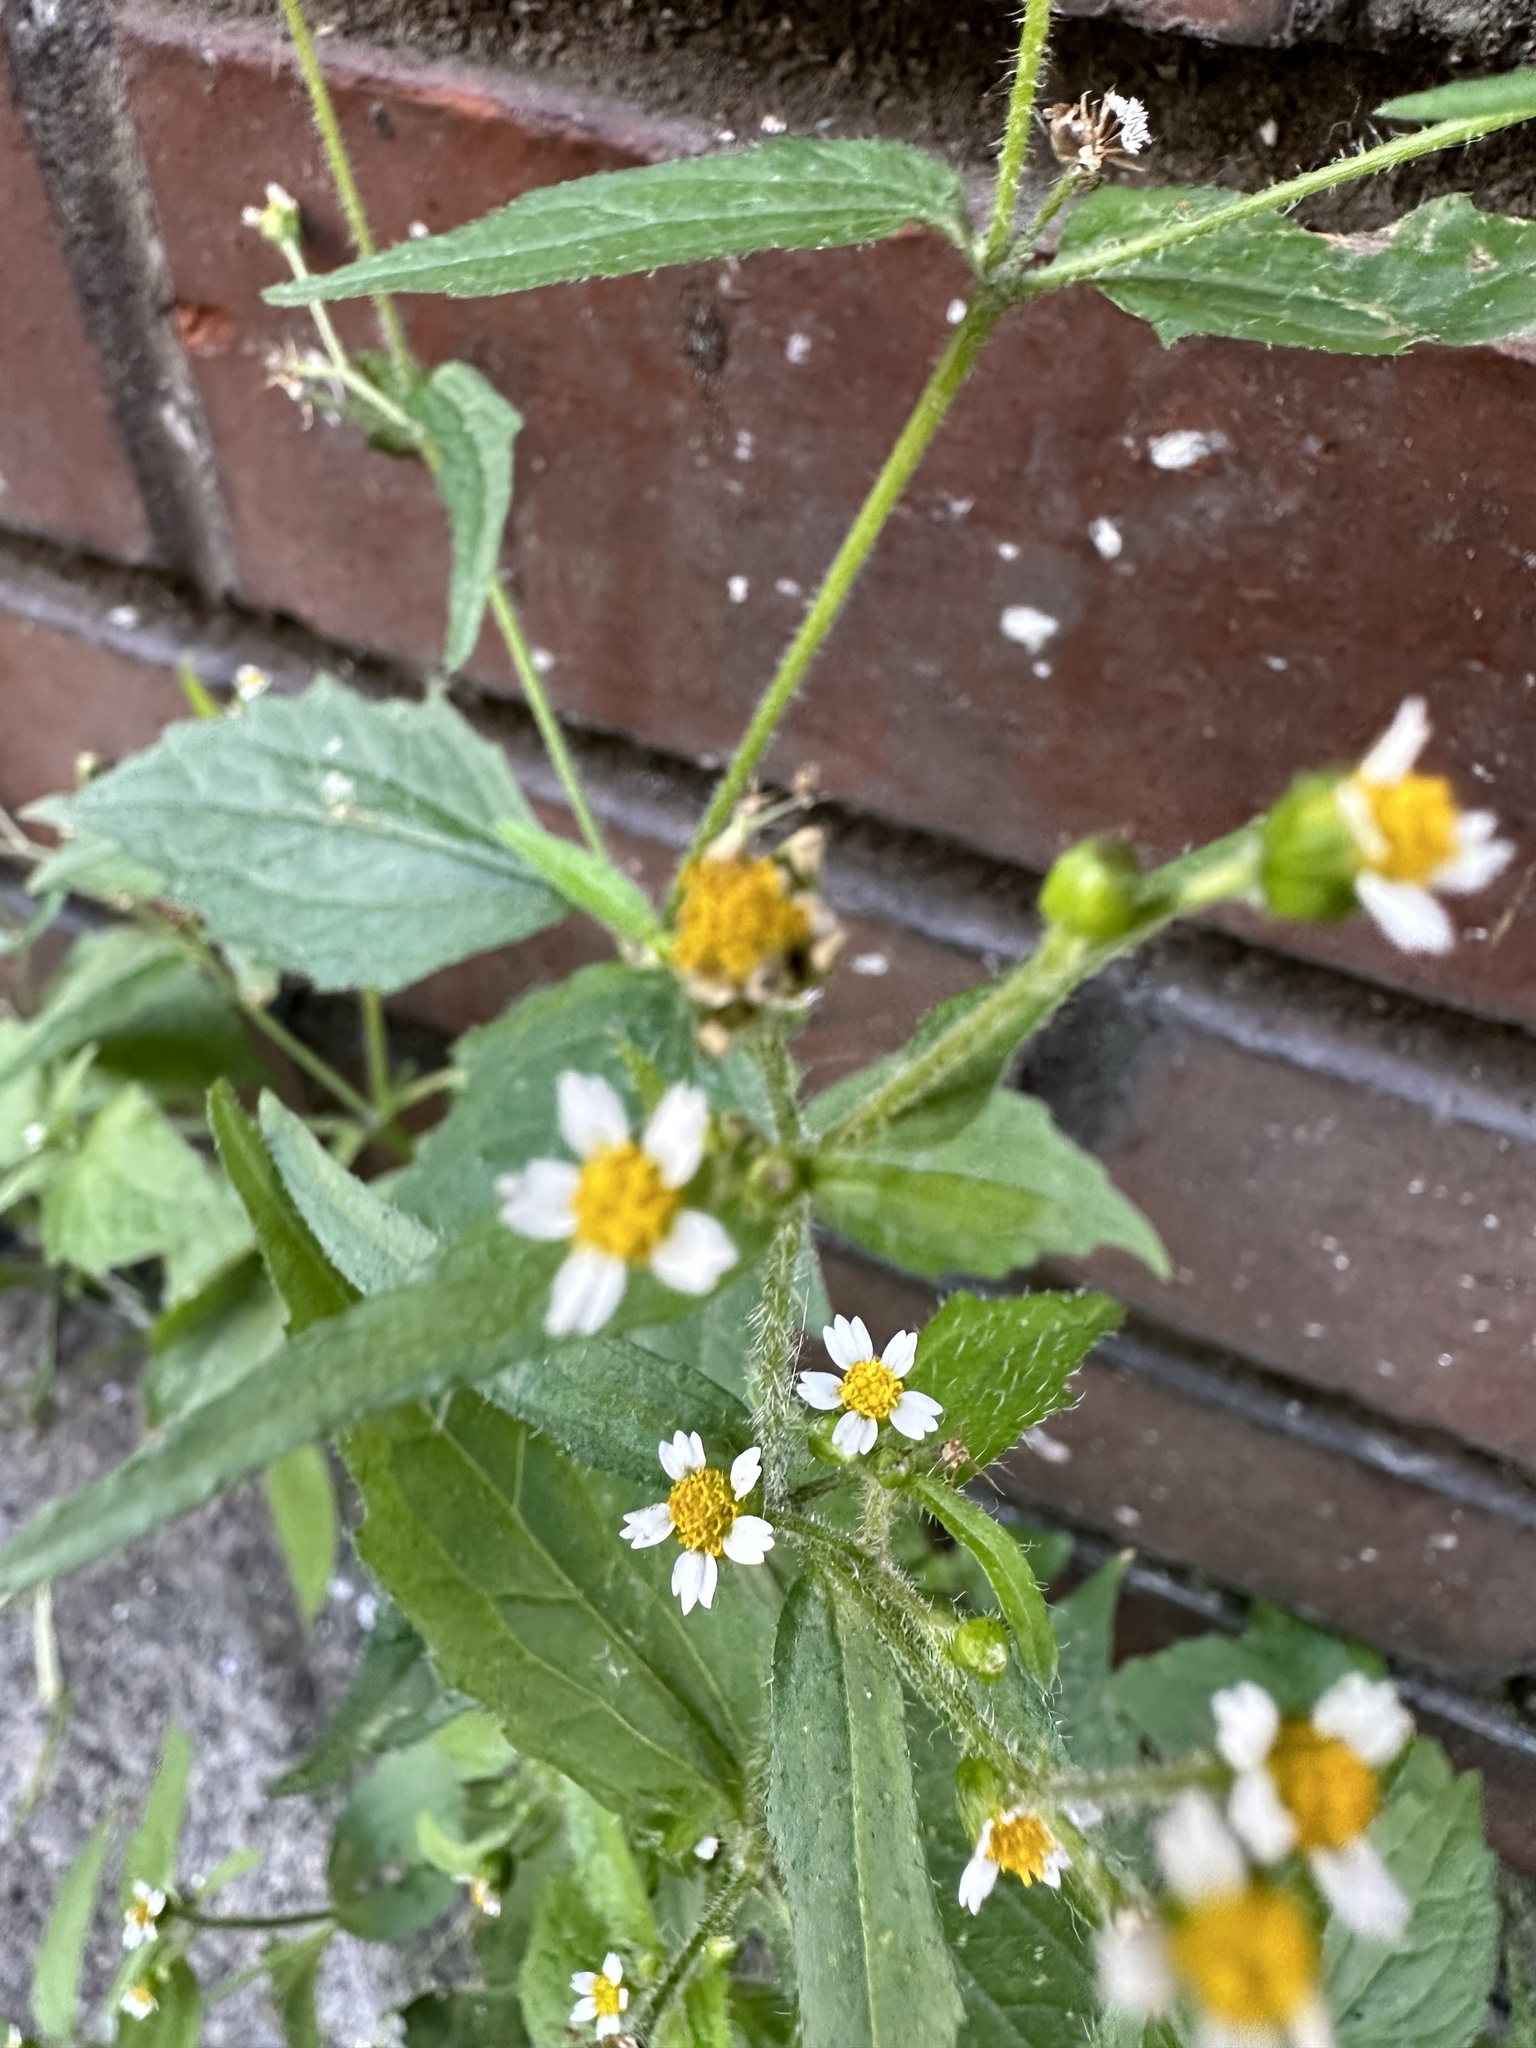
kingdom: Plantae
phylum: Tracheophyta
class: Magnoliopsida
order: Asterales
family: Asteraceae
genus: Galinsoga
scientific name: Galinsoga quadriradiata
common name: Shaggy soldier
